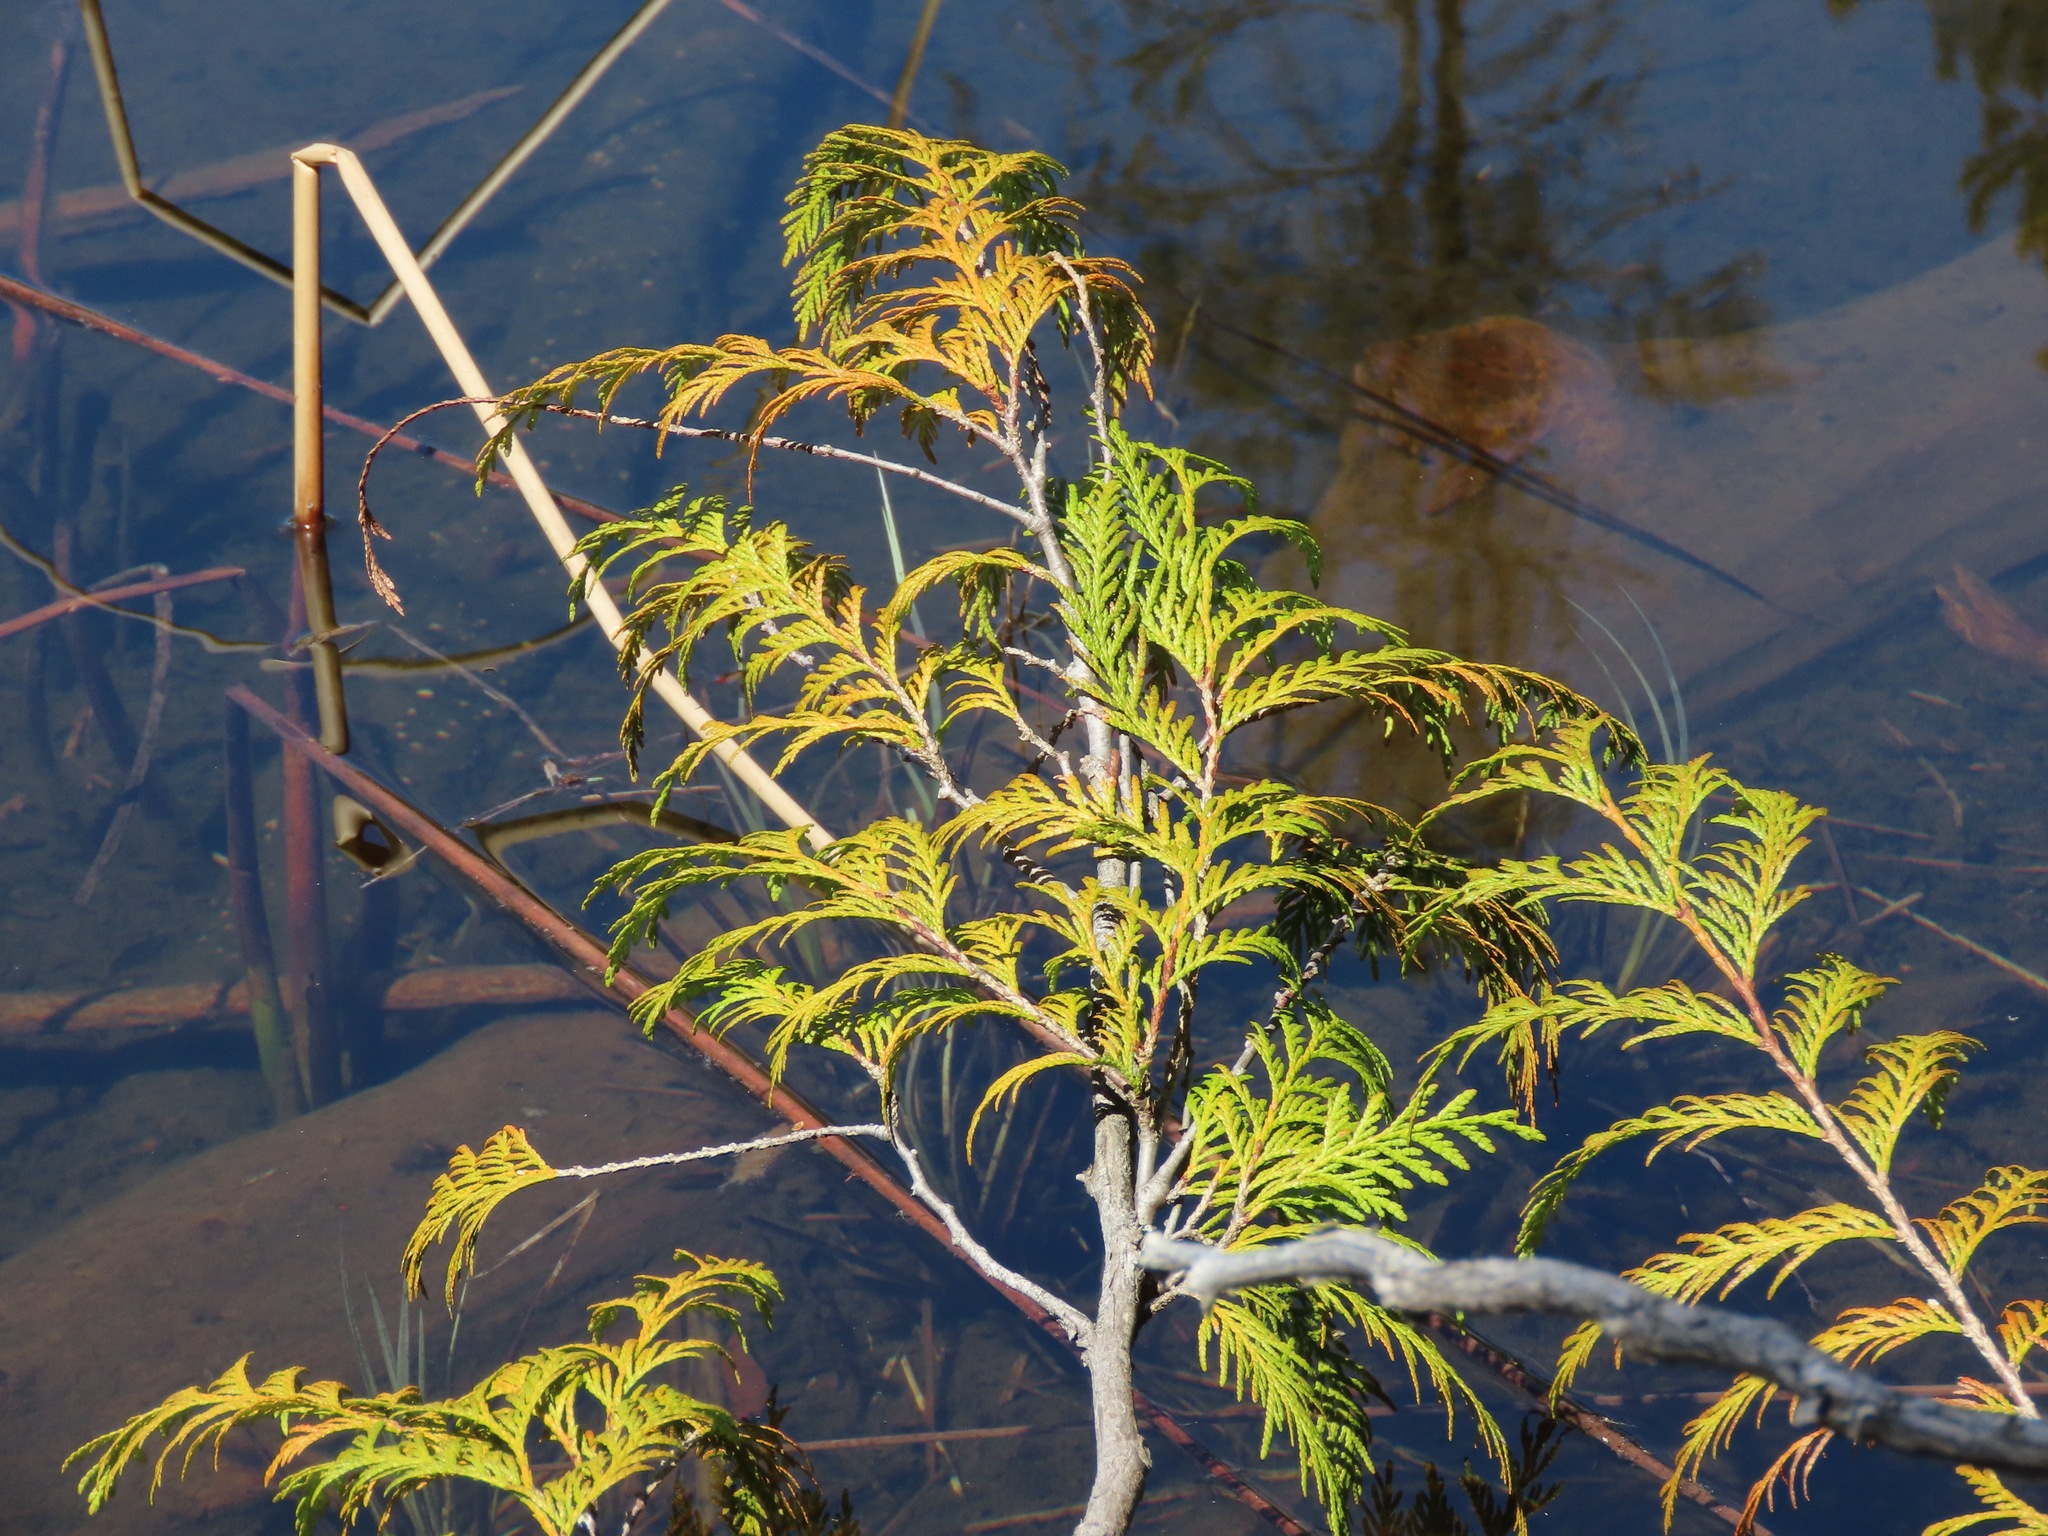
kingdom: Plantae
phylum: Tracheophyta
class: Pinopsida
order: Pinales
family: Cupressaceae
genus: Thuja
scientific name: Thuja plicata
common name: Western red-cedar
